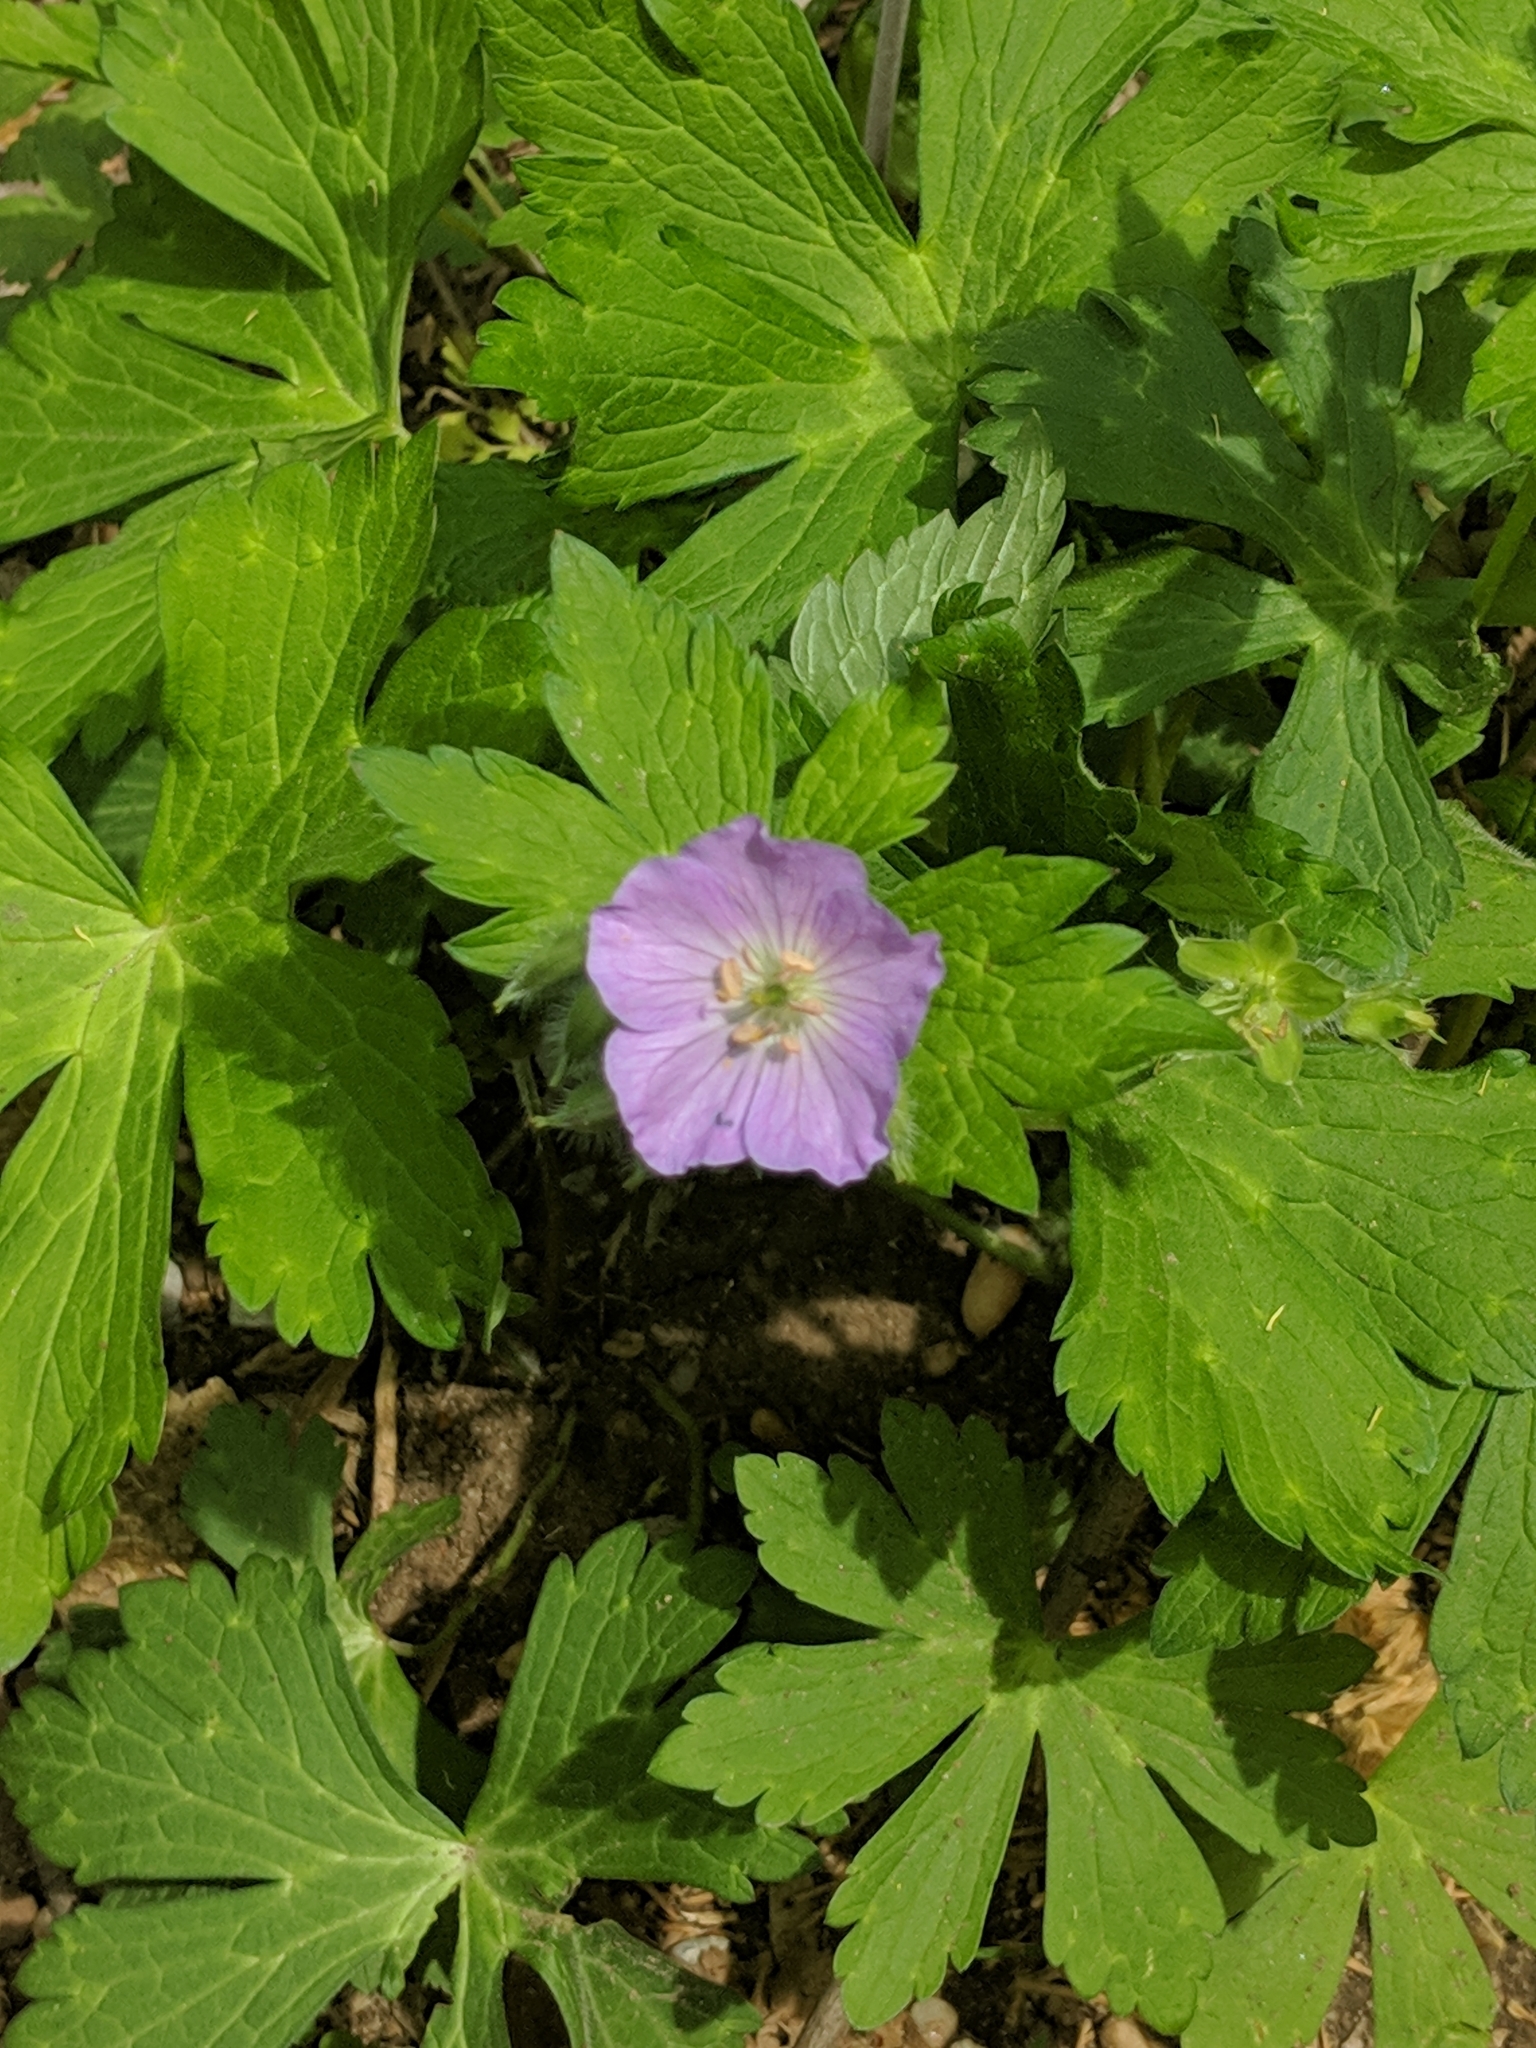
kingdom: Plantae
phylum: Tracheophyta
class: Magnoliopsida
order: Geraniales
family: Geraniaceae
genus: Geranium
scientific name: Geranium maculatum
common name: Spotted geranium
